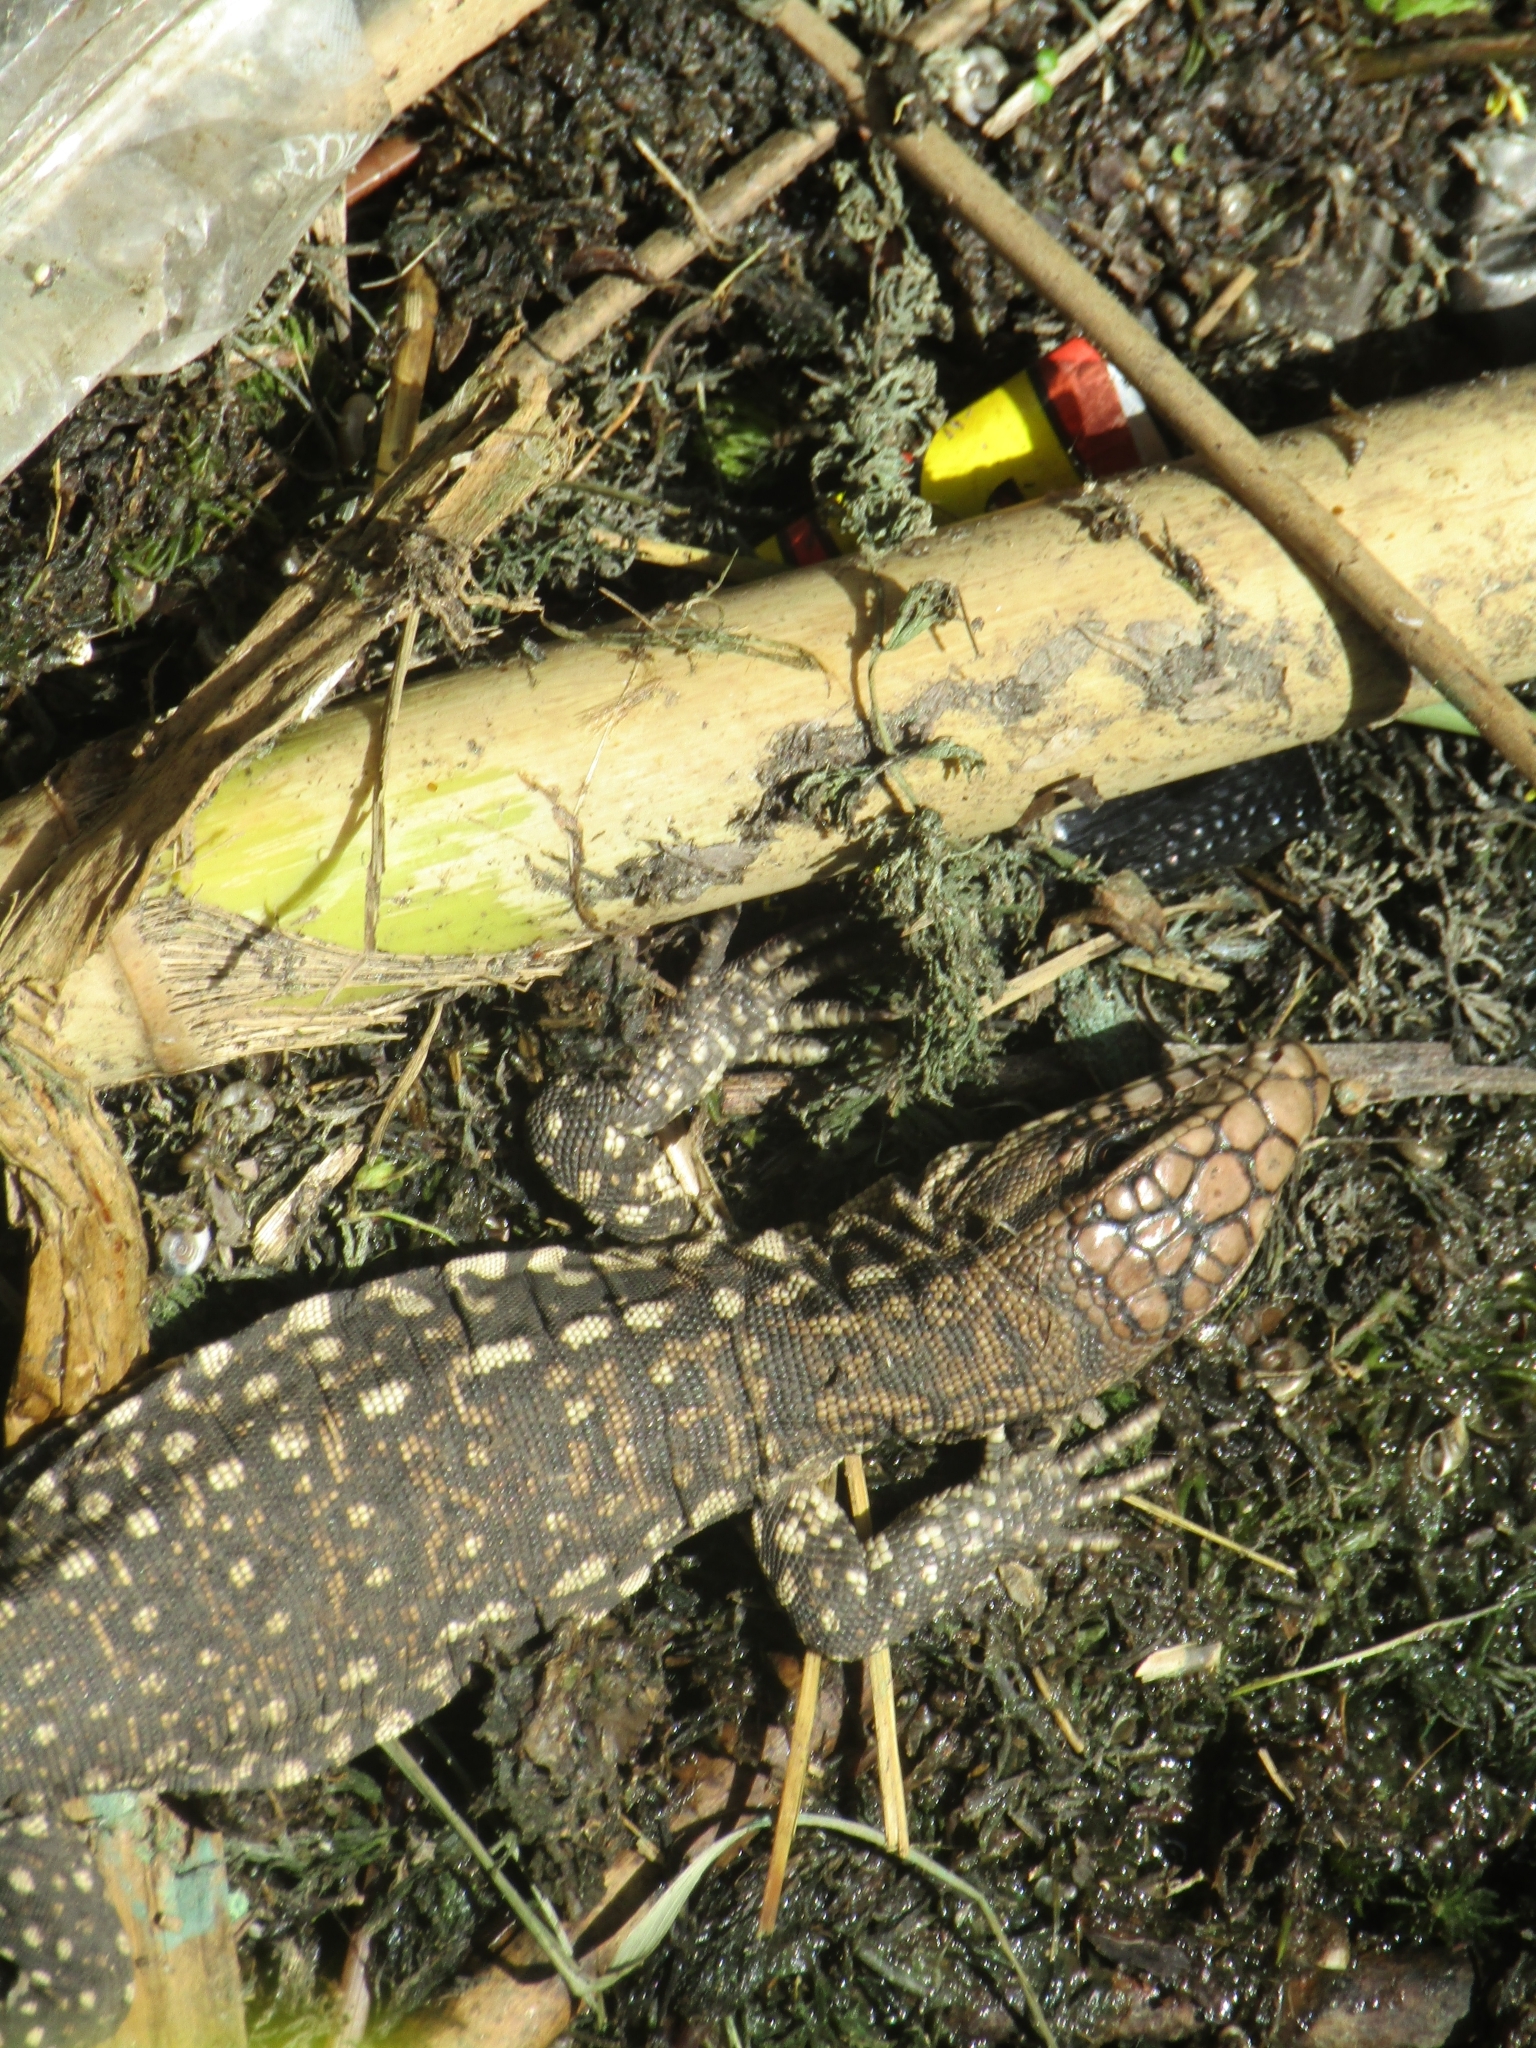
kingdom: Animalia
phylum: Chordata
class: Squamata
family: Teiidae
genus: Salvator
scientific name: Salvator merianae
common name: Argentine black and white tegu
